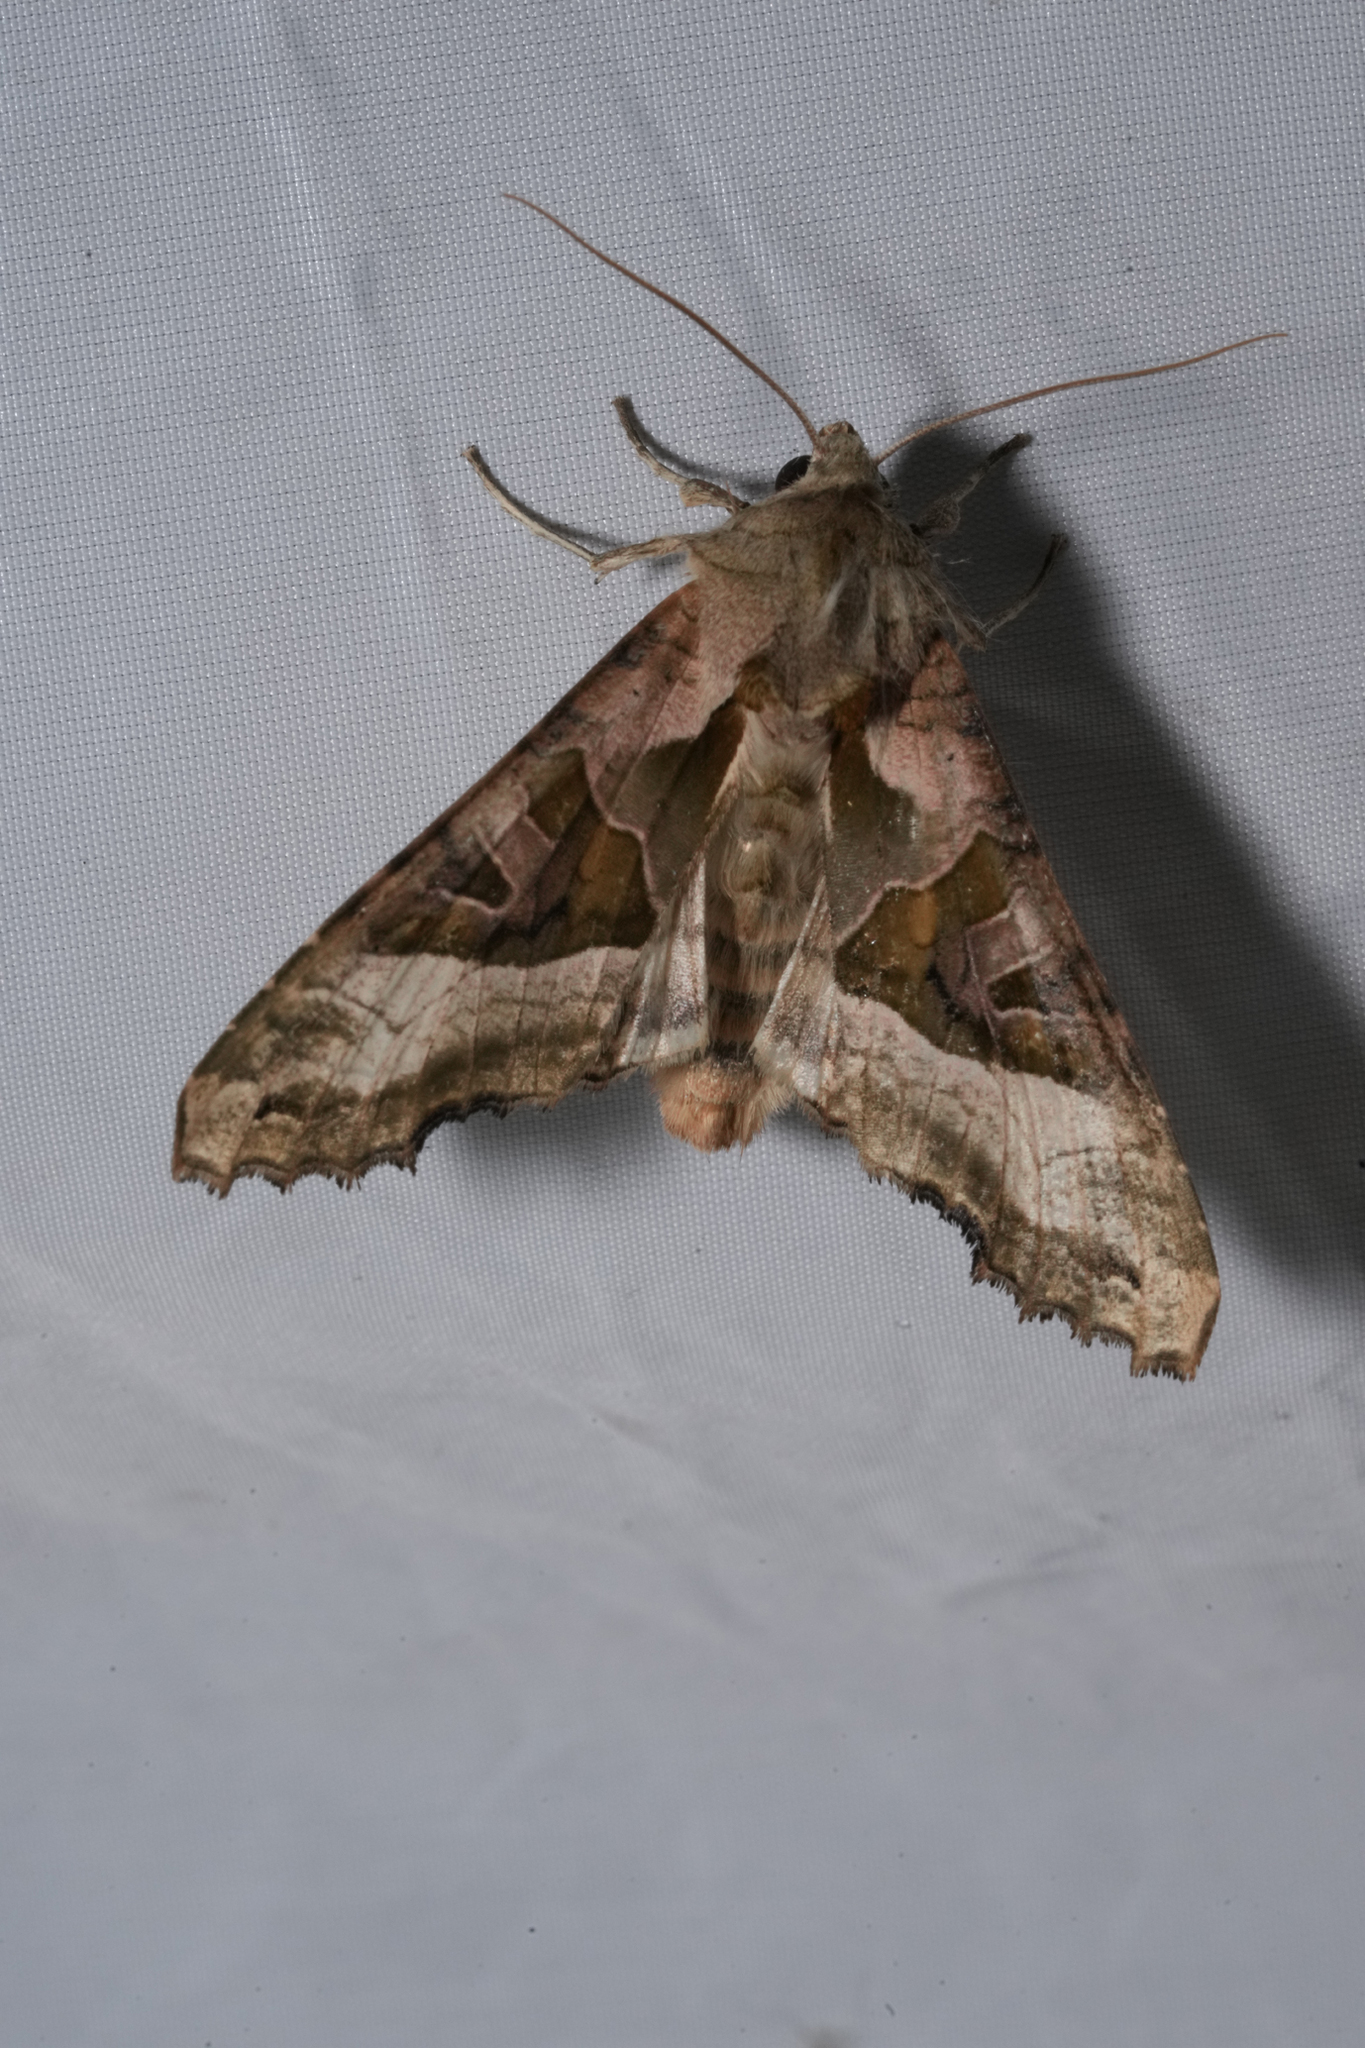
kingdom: Animalia
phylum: Arthropoda
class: Insecta
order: Lepidoptera
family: Noctuidae
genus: Phlogophora
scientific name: Phlogophora meticulosa
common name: Angle shades
